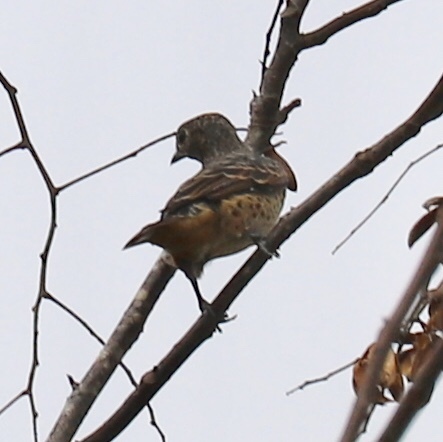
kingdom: Animalia
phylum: Chordata
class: Aves
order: Passeriformes
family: Cotingidae
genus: Cotinga
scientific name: Cotinga nattererii
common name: Blue cotinga
